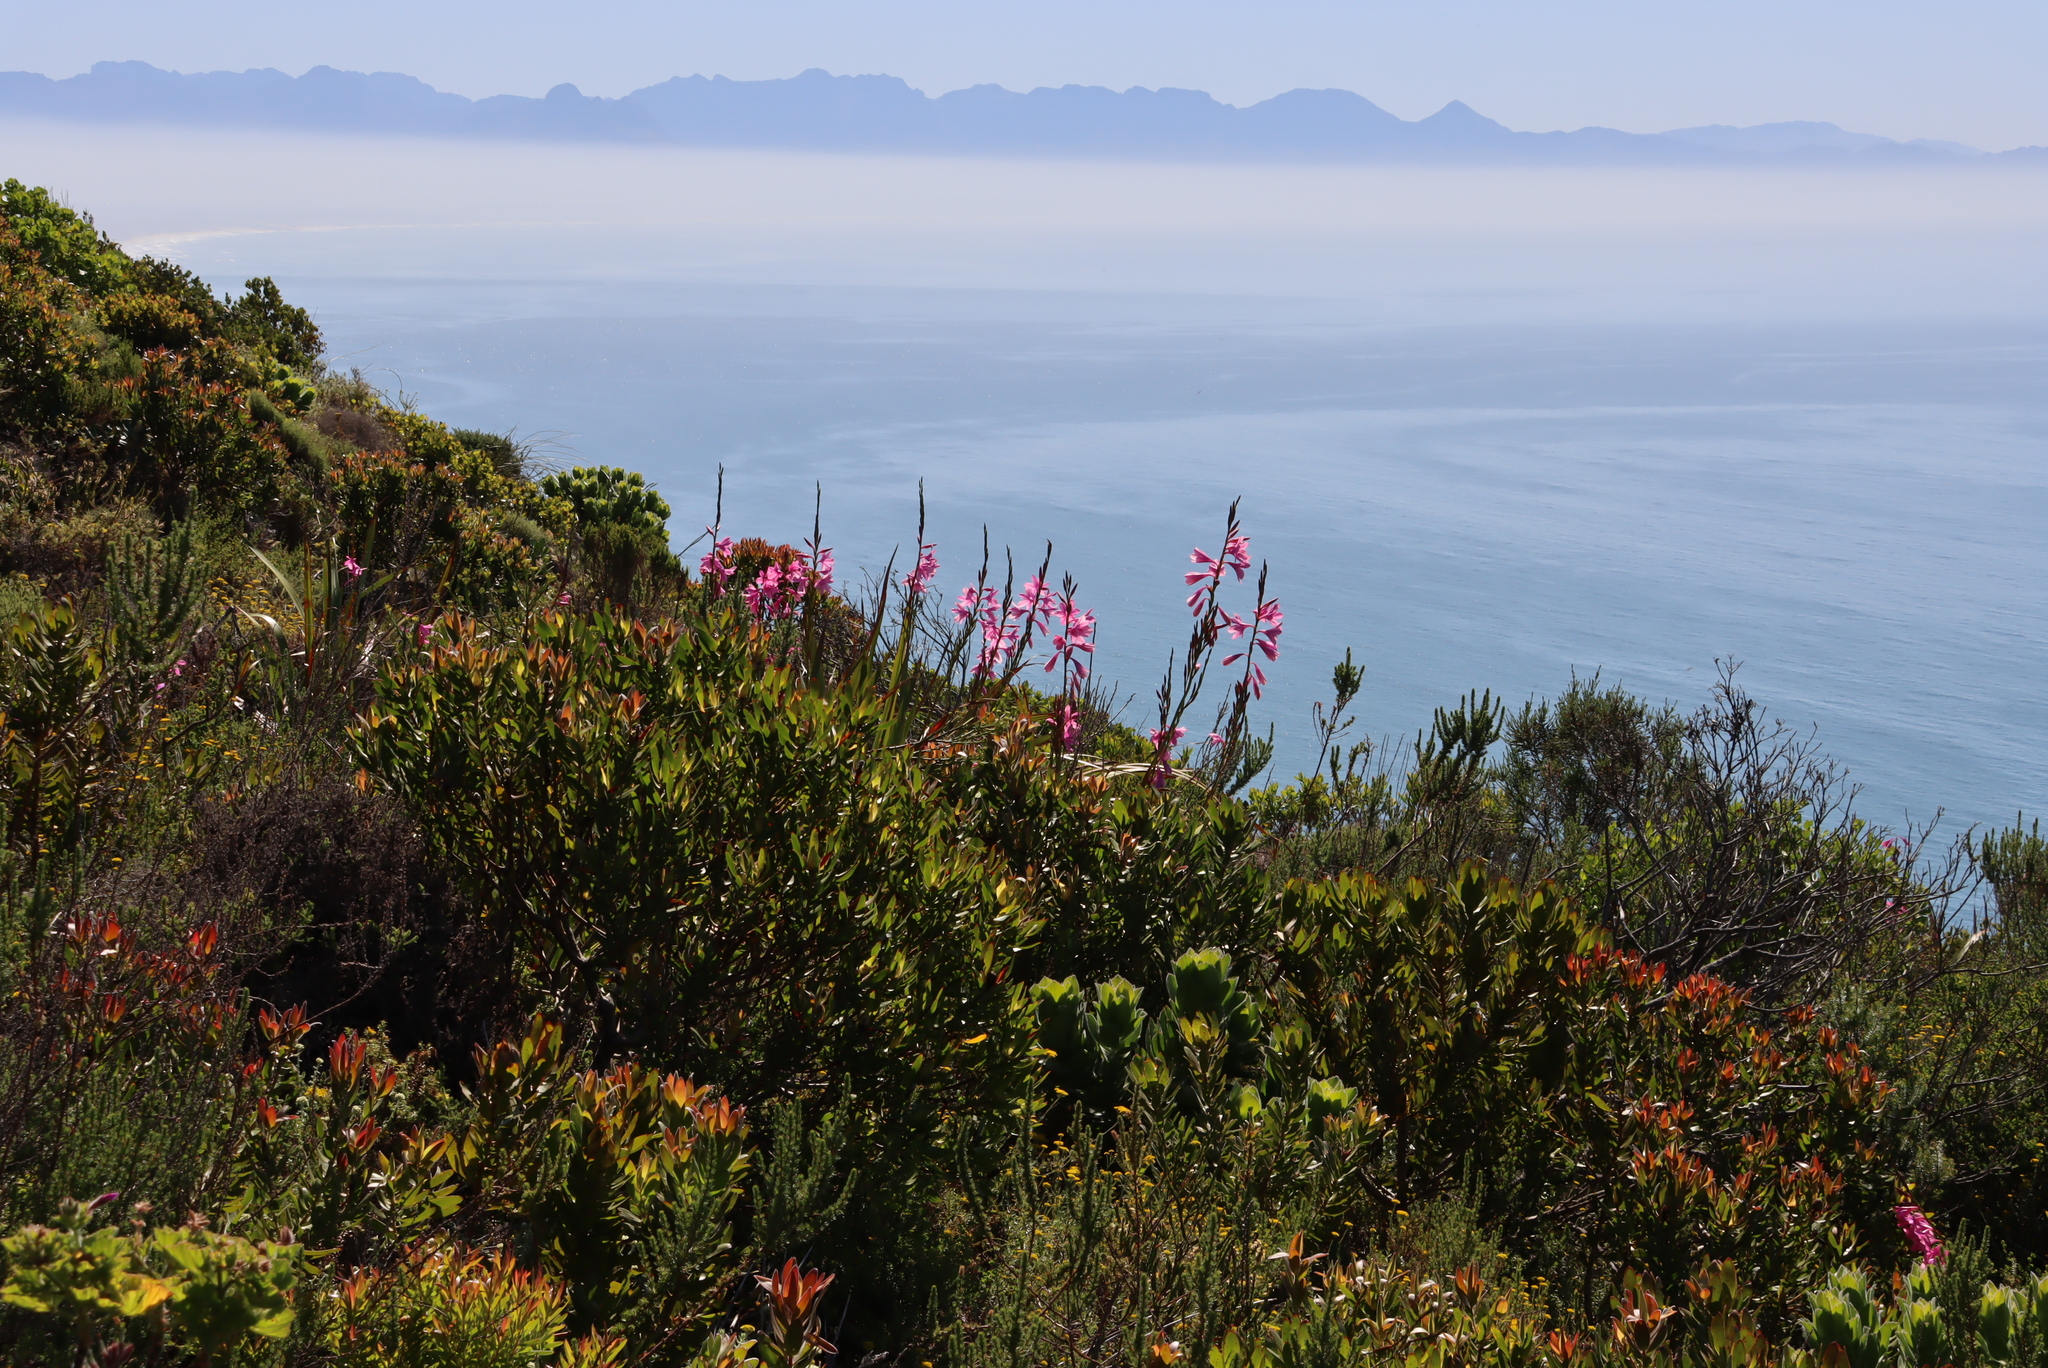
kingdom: Plantae
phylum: Tracheophyta
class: Liliopsida
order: Asparagales
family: Iridaceae
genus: Watsonia
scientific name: Watsonia borbonica
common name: Bugle-lily
